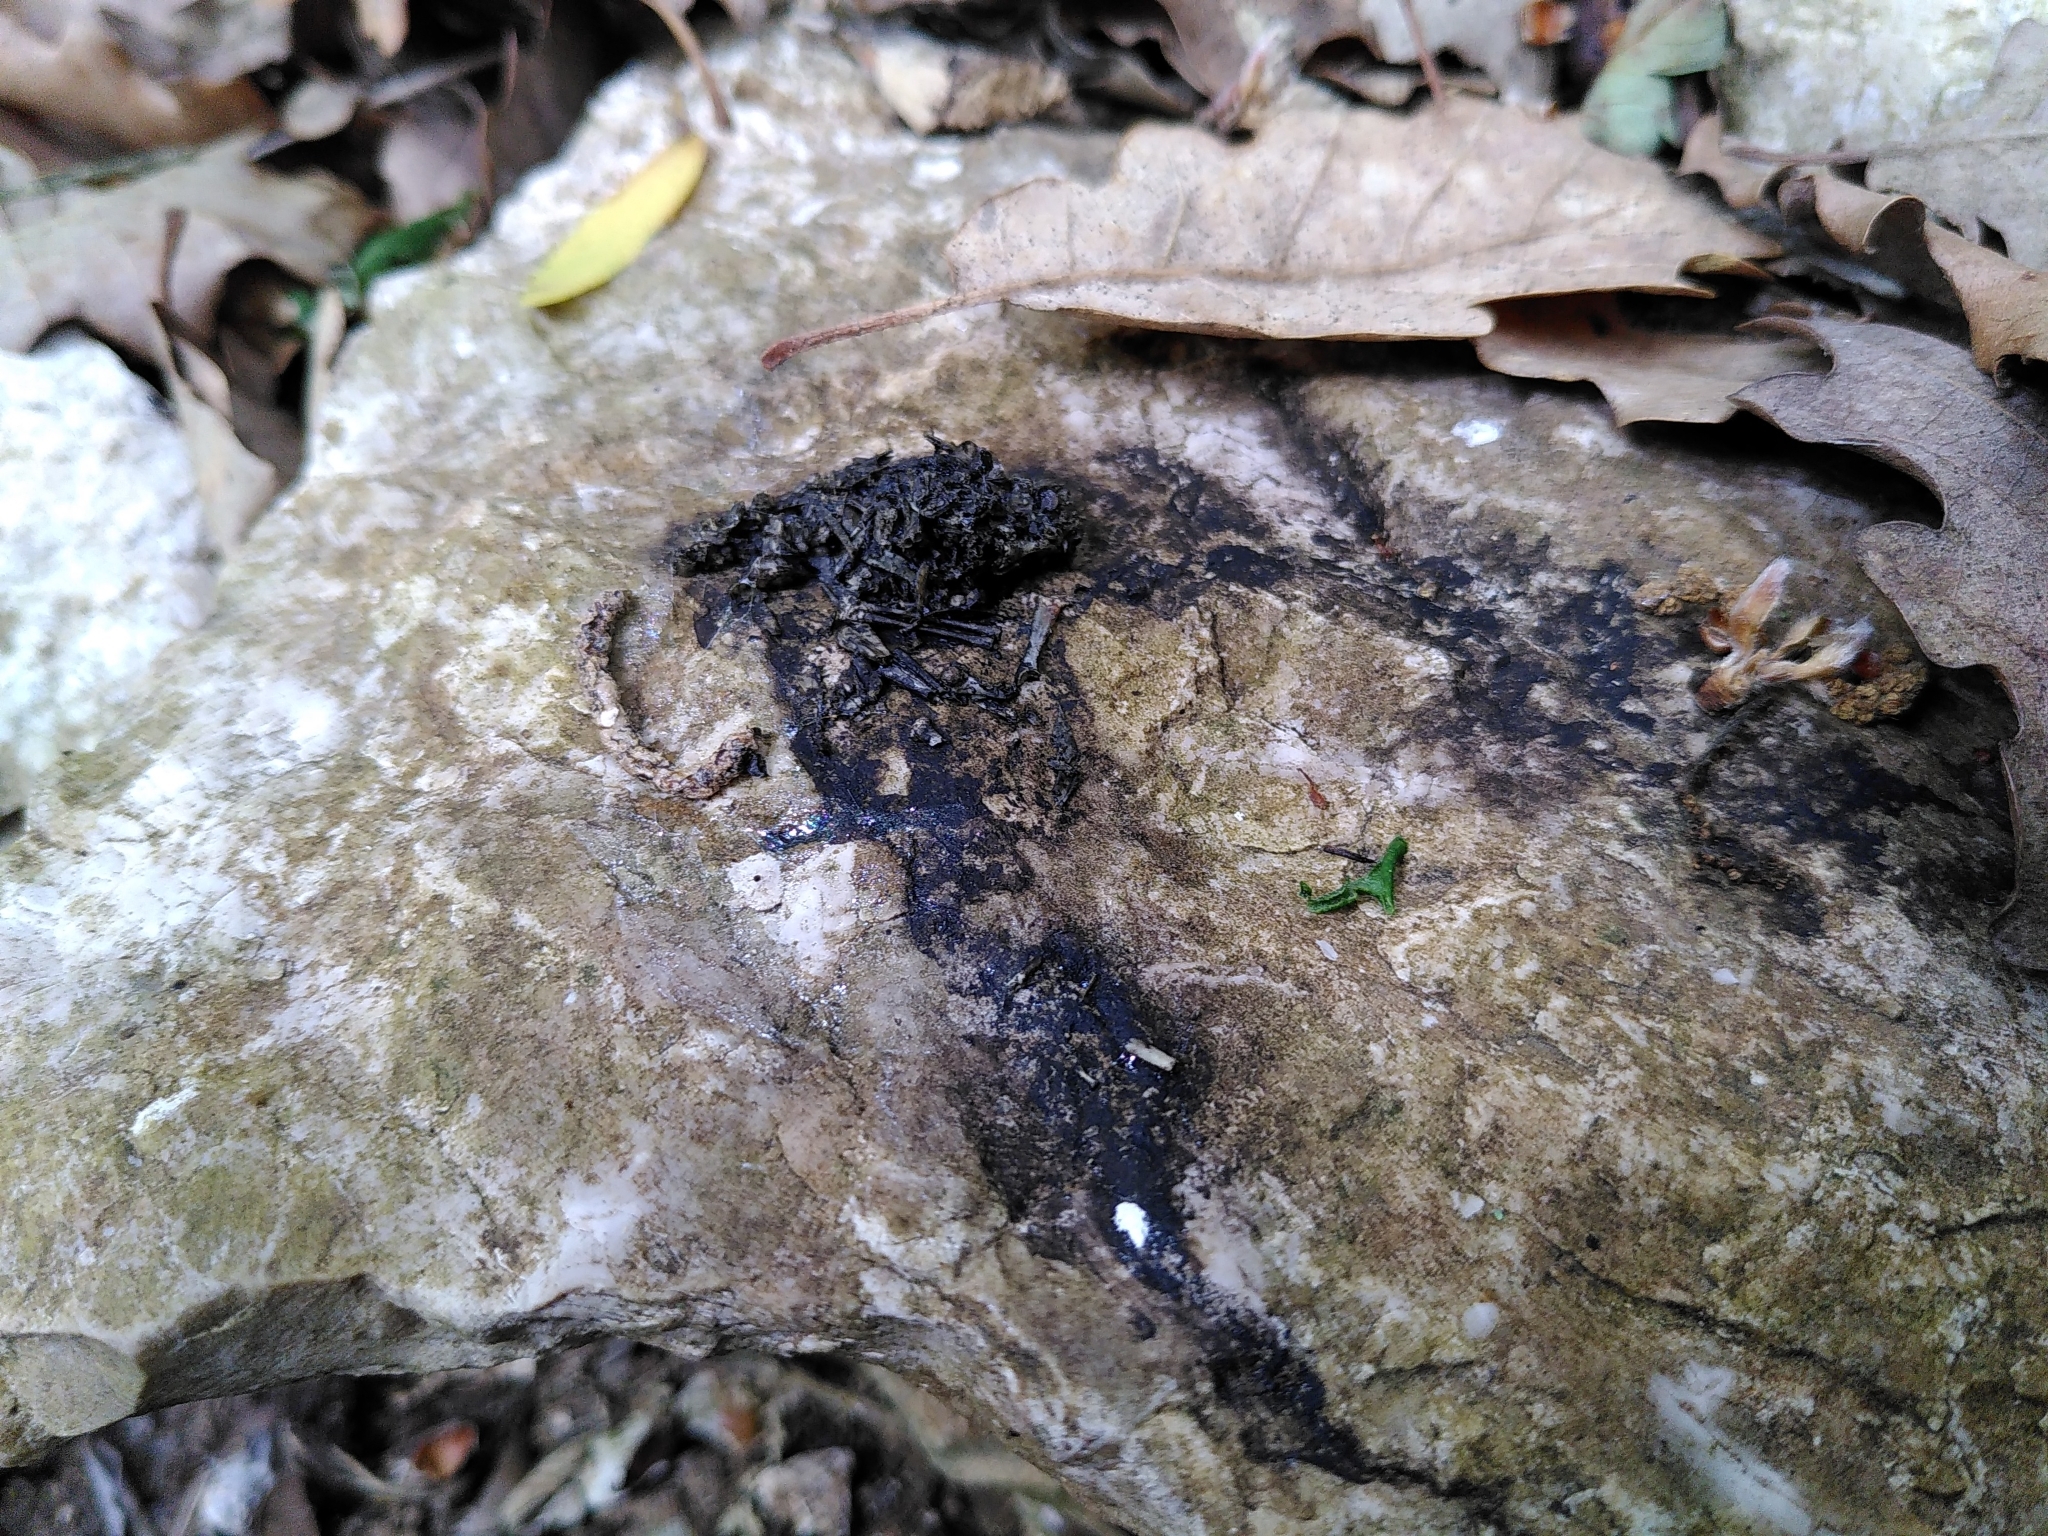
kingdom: Animalia
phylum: Chordata
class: Mammalia
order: Carnivora
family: Mustelidae
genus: Lutra
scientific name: Lutra lutra
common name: European otter
